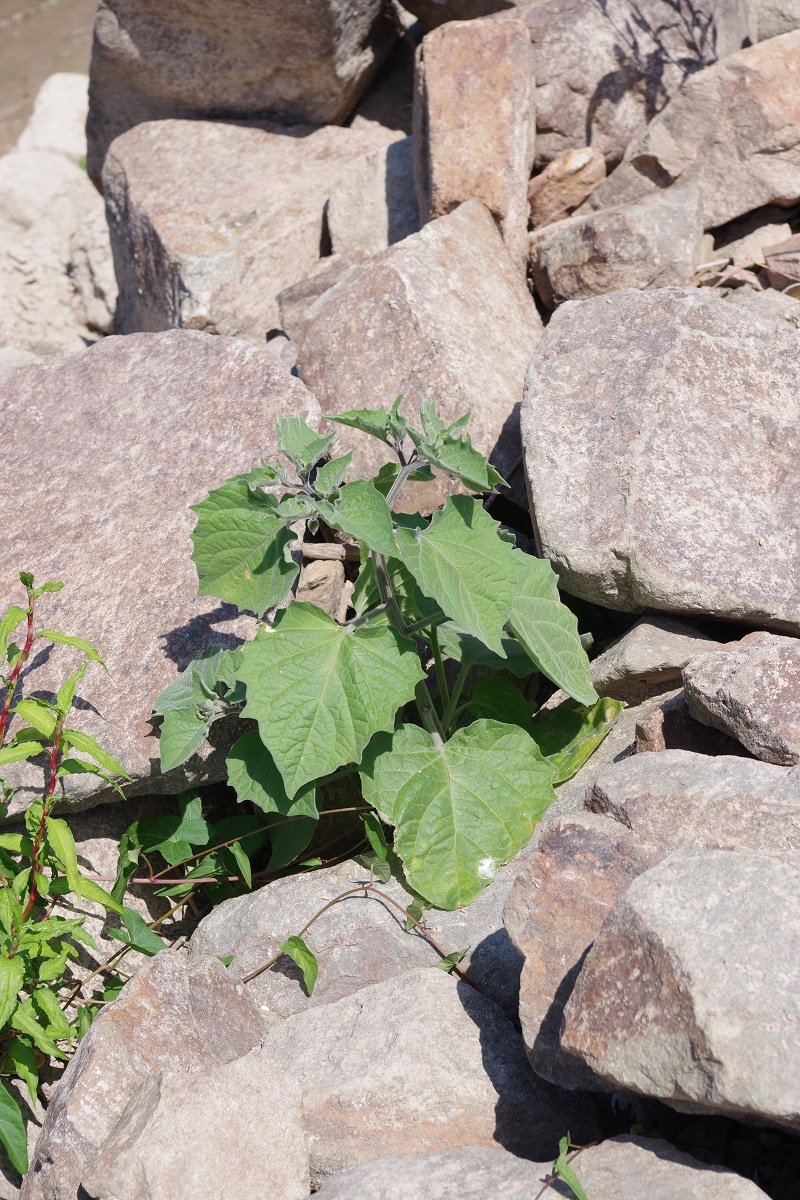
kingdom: Plantae
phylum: Tracheophyta
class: Magnoliopsida
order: Solanales
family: Solanaceae
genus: Physalis
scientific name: Physalis peruviana
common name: Cape-gooseberry
